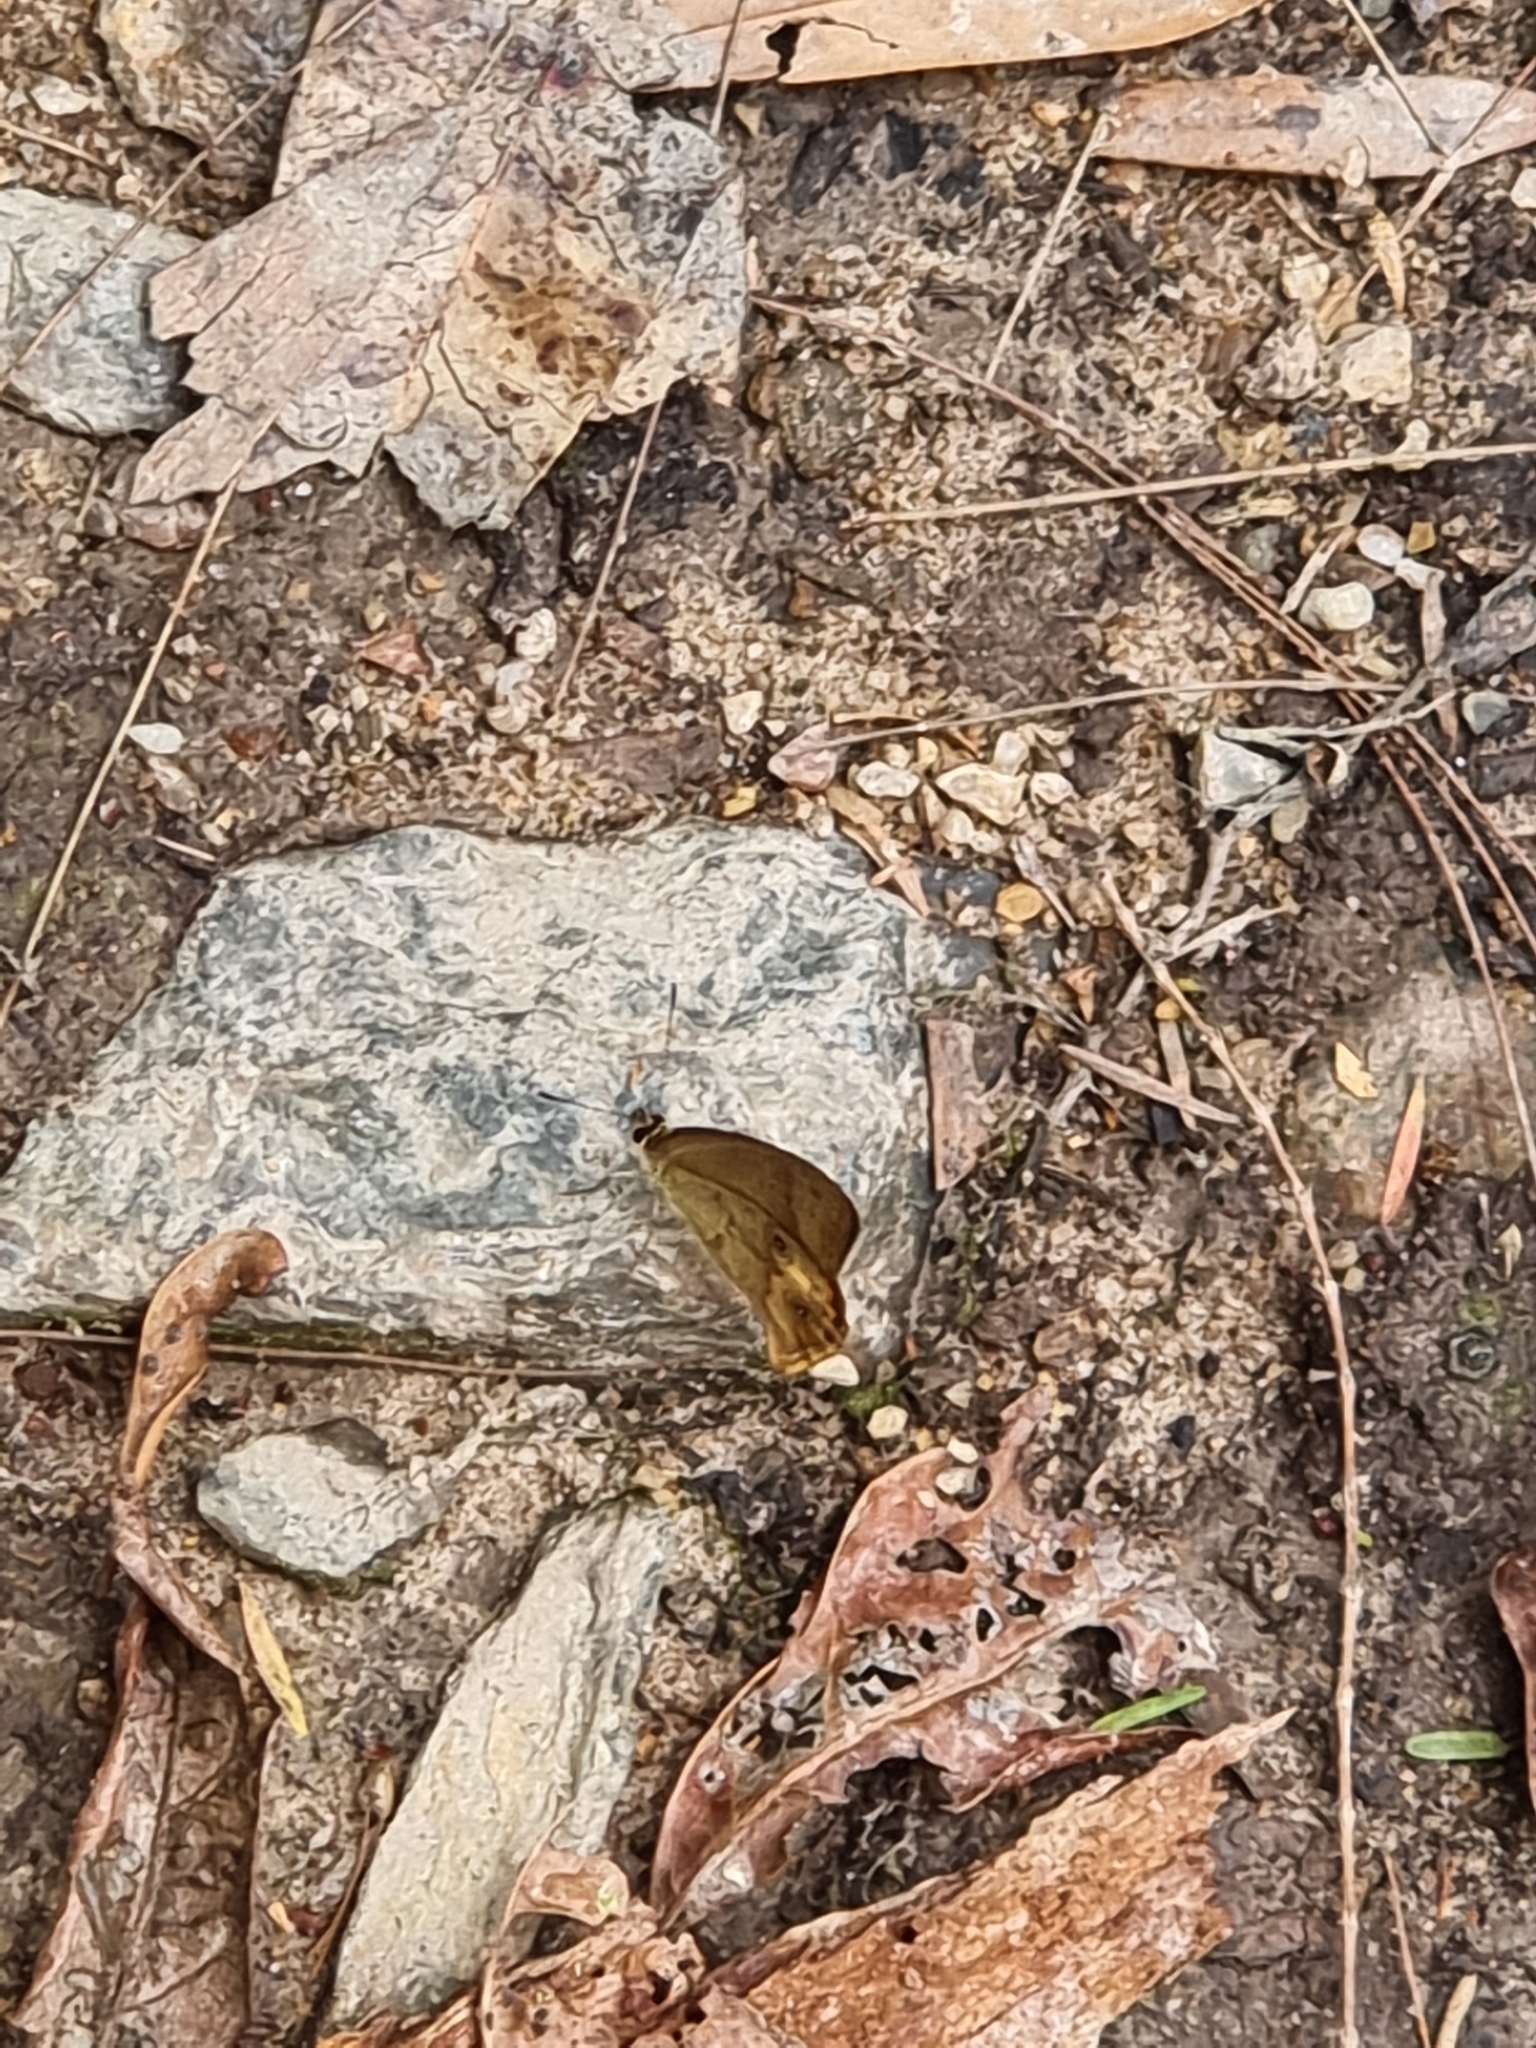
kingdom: Animalia
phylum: Arthropoda
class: Insecta
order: Lepidoptera
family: Nymphalidae
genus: Hypocysta
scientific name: Hypocysta metirius
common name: Brown ringlet
